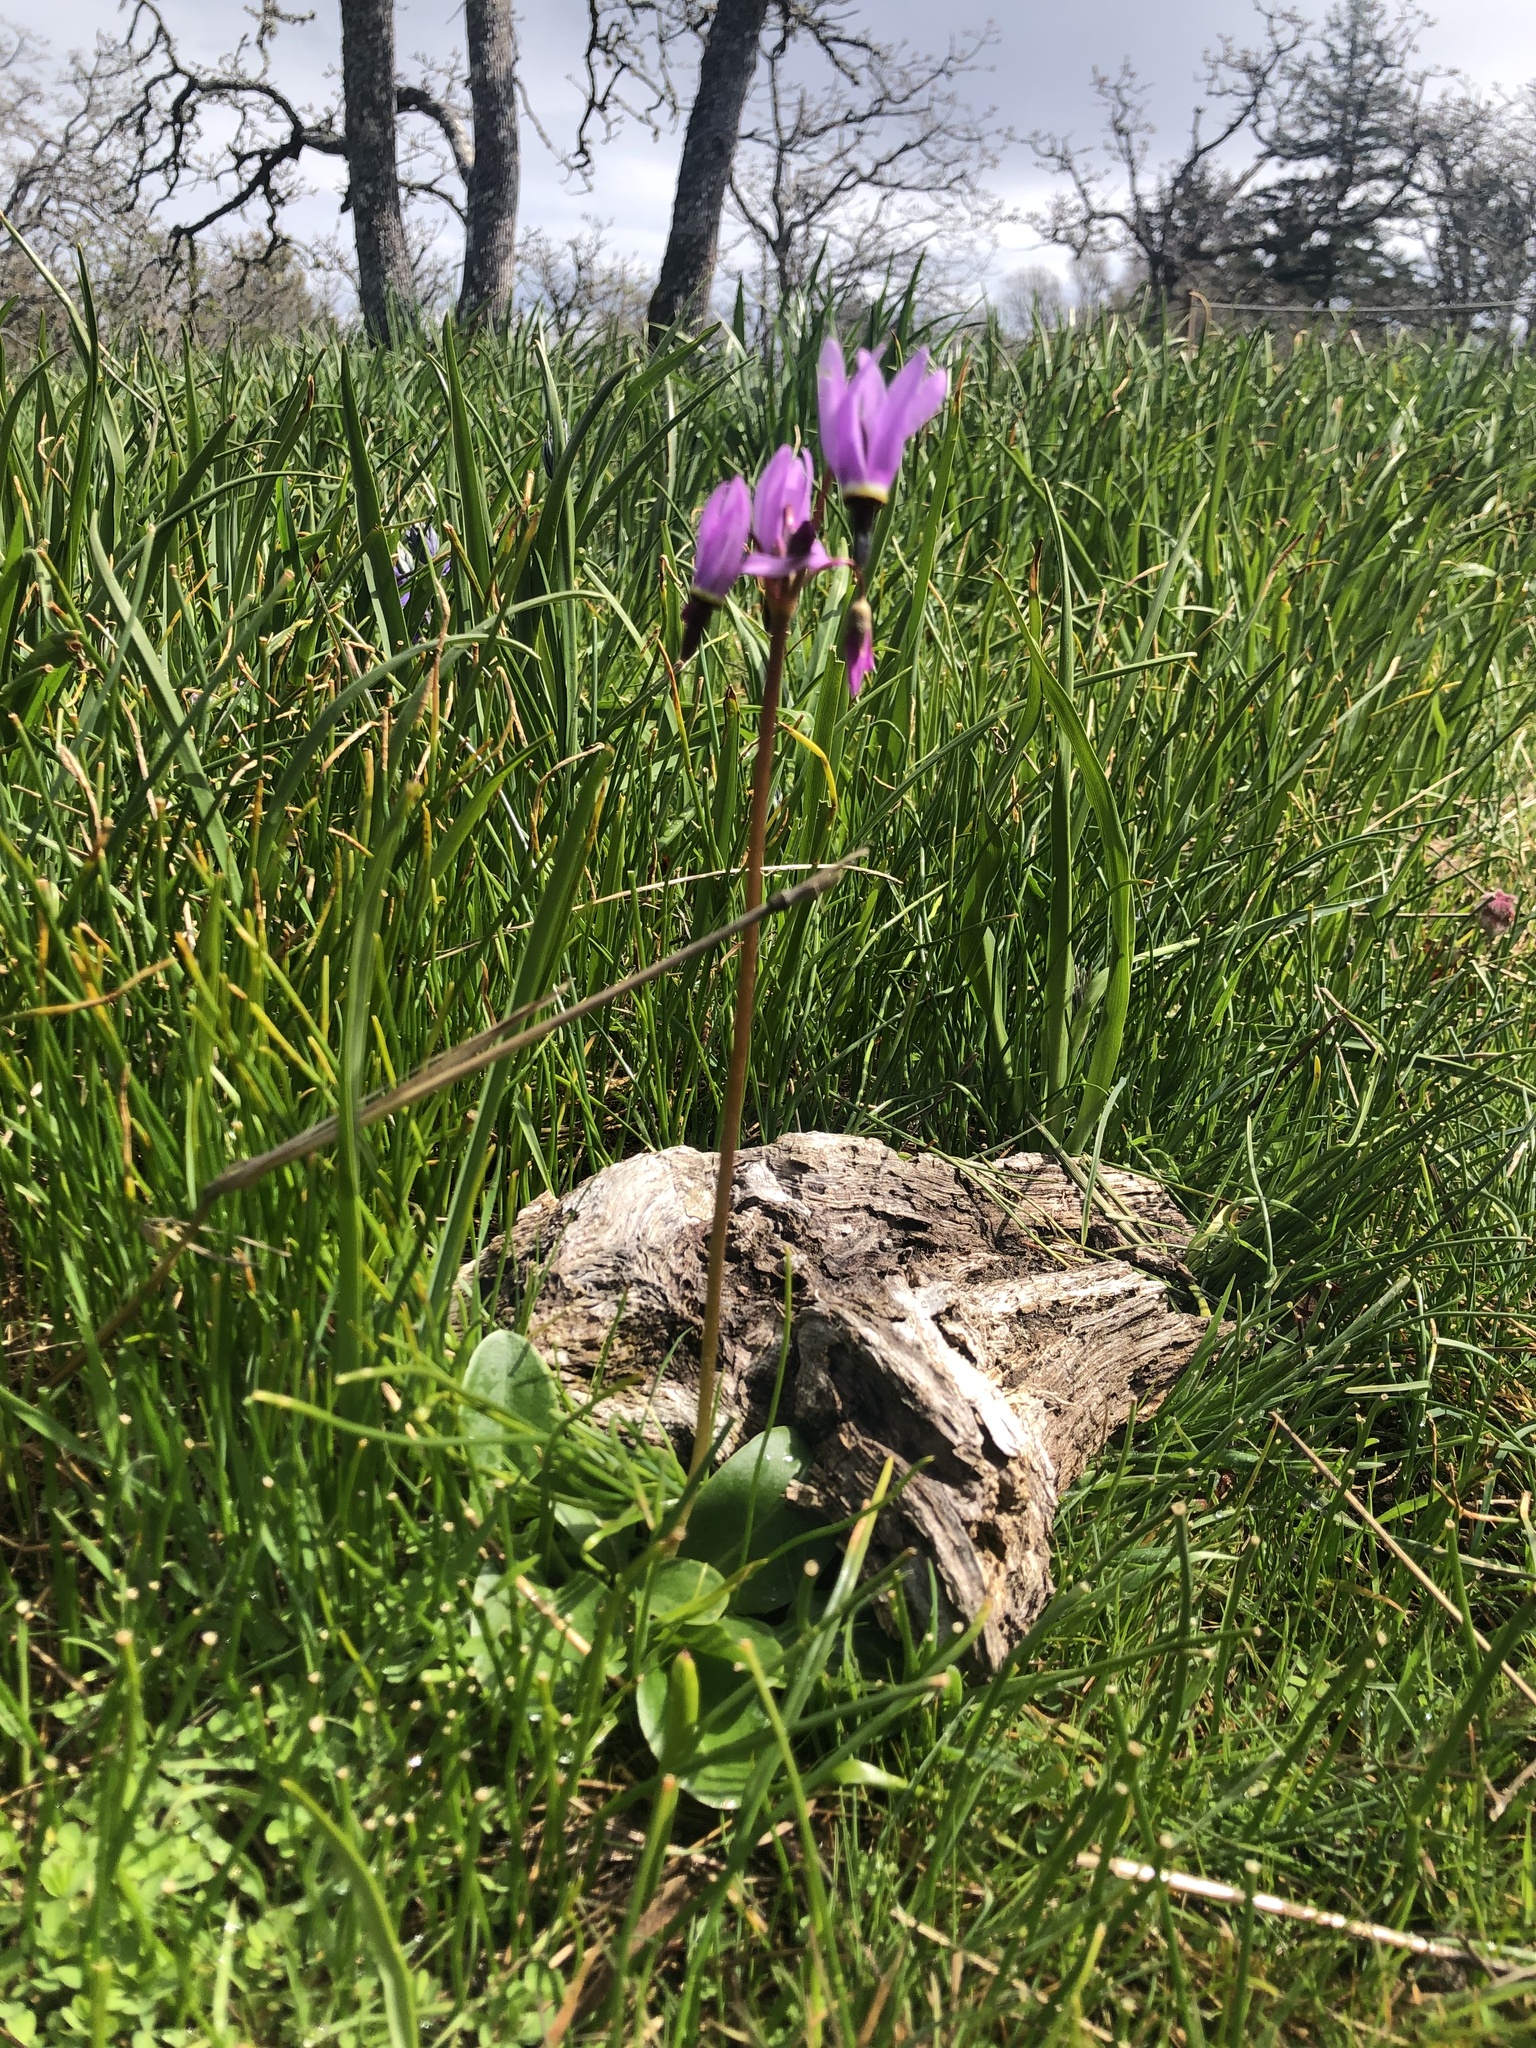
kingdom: Plantae
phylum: Tracheophyta
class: Magnoliopsida
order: Ericales
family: Primulaceae
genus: Dodecatheon
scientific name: Dodecatheon hendersonii
